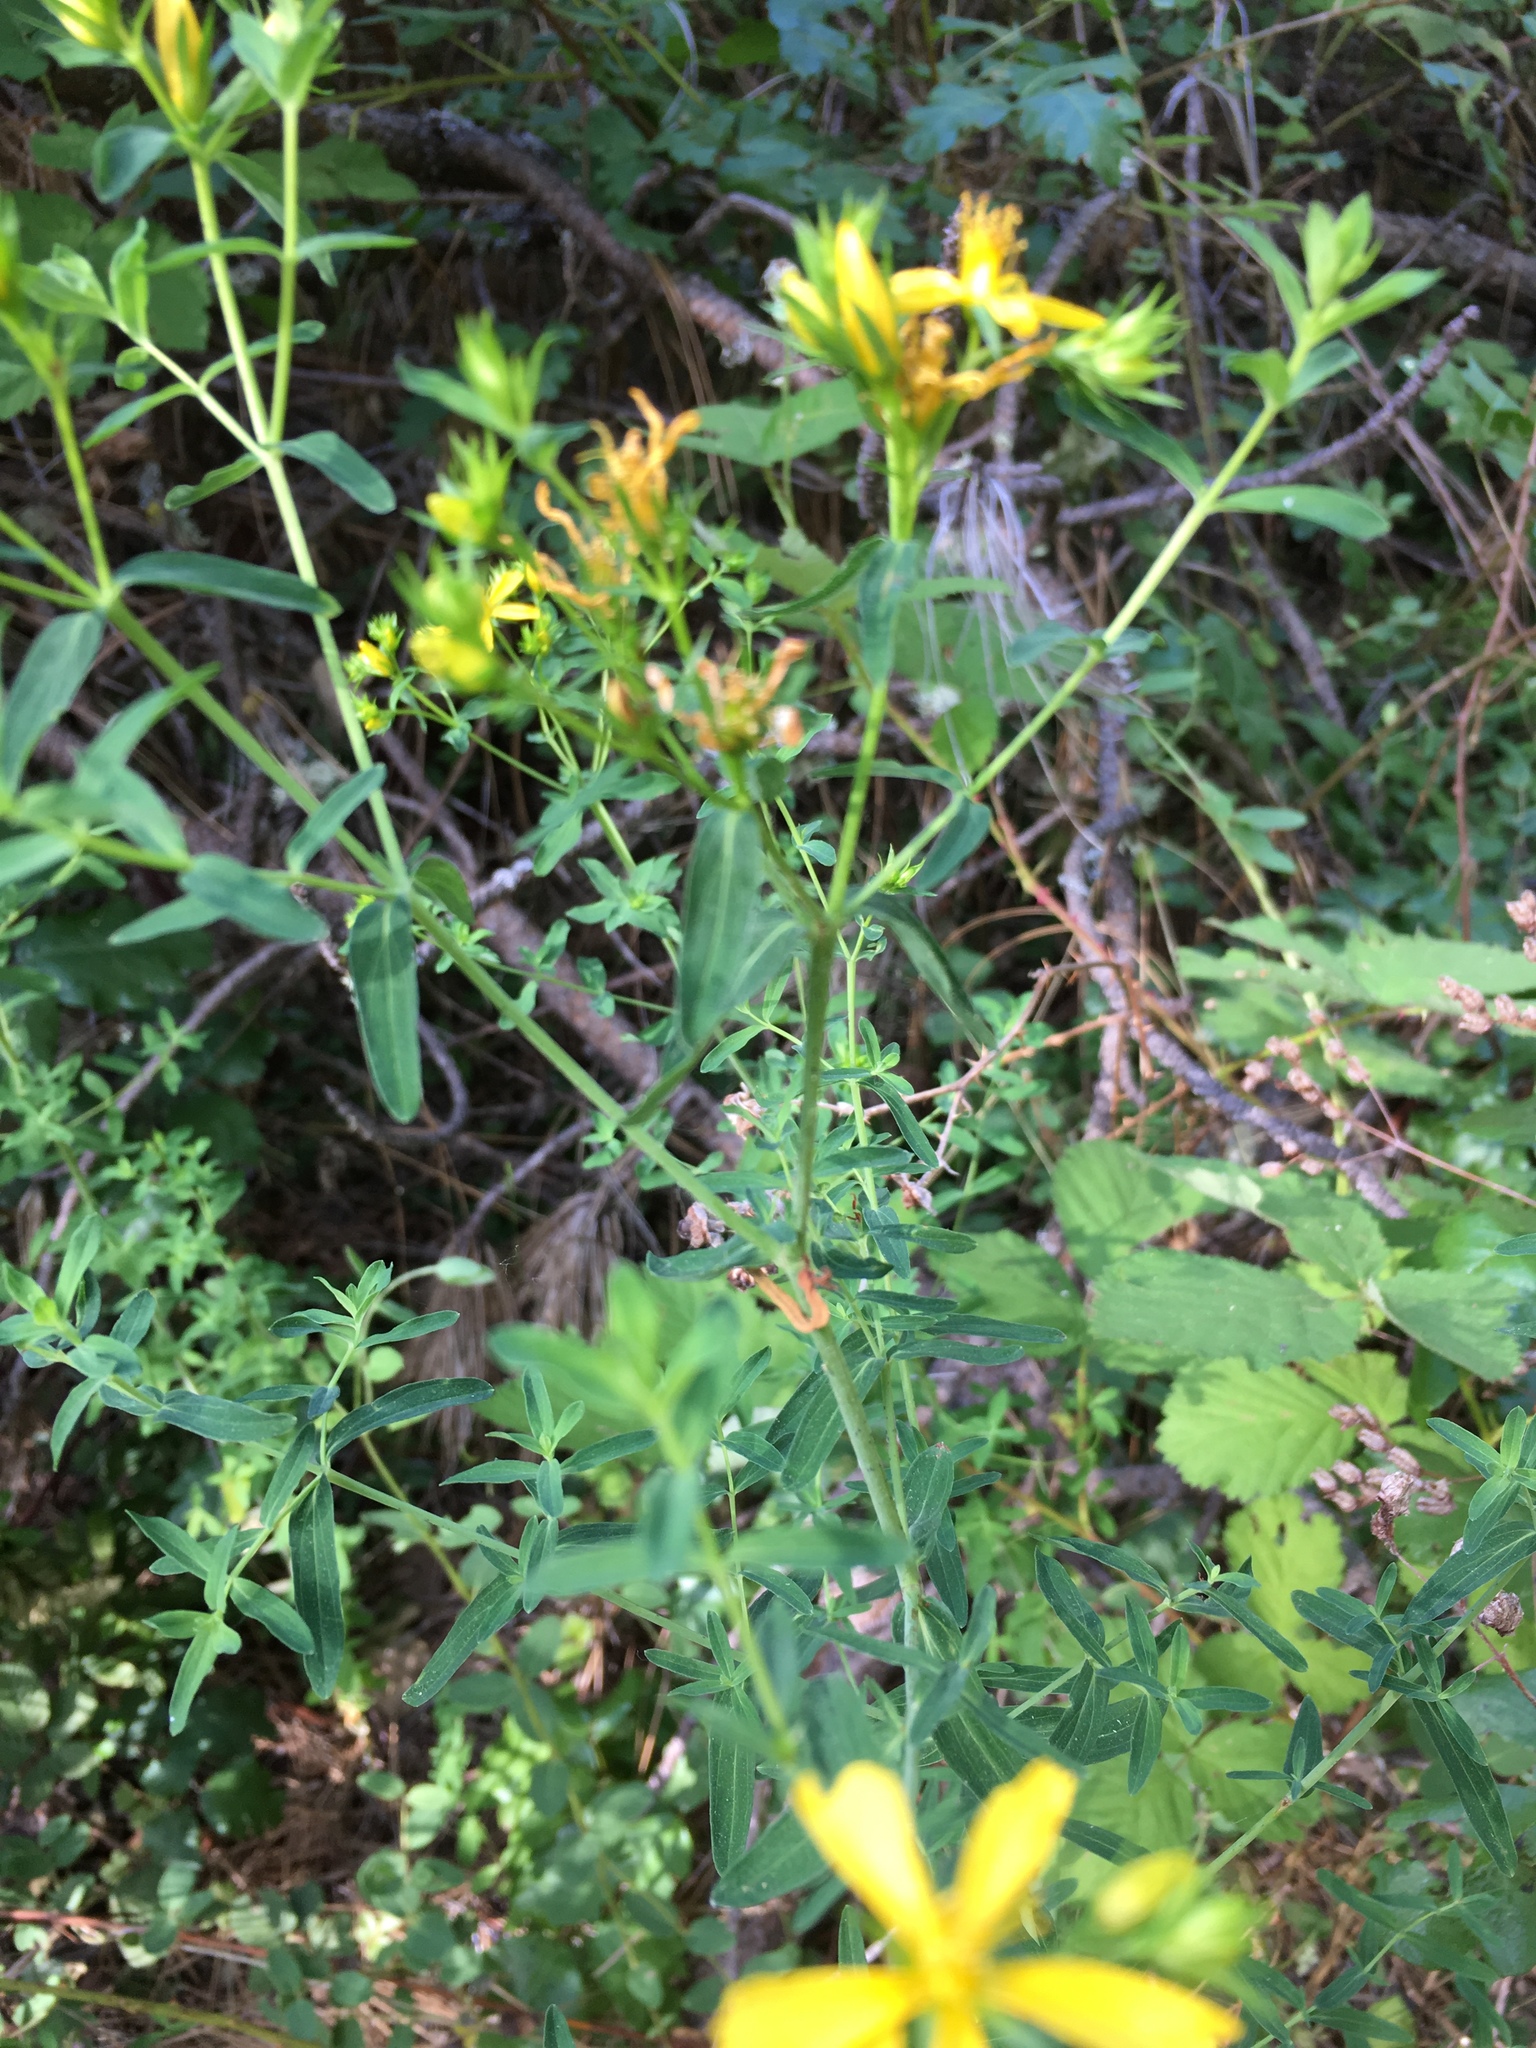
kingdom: Plantae
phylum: Tracheophyta
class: Magnoliopsida
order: Malpighiales
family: Hypericaceae
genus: Hypericum
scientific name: Hypericum perforatum
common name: Common st. johnswort
